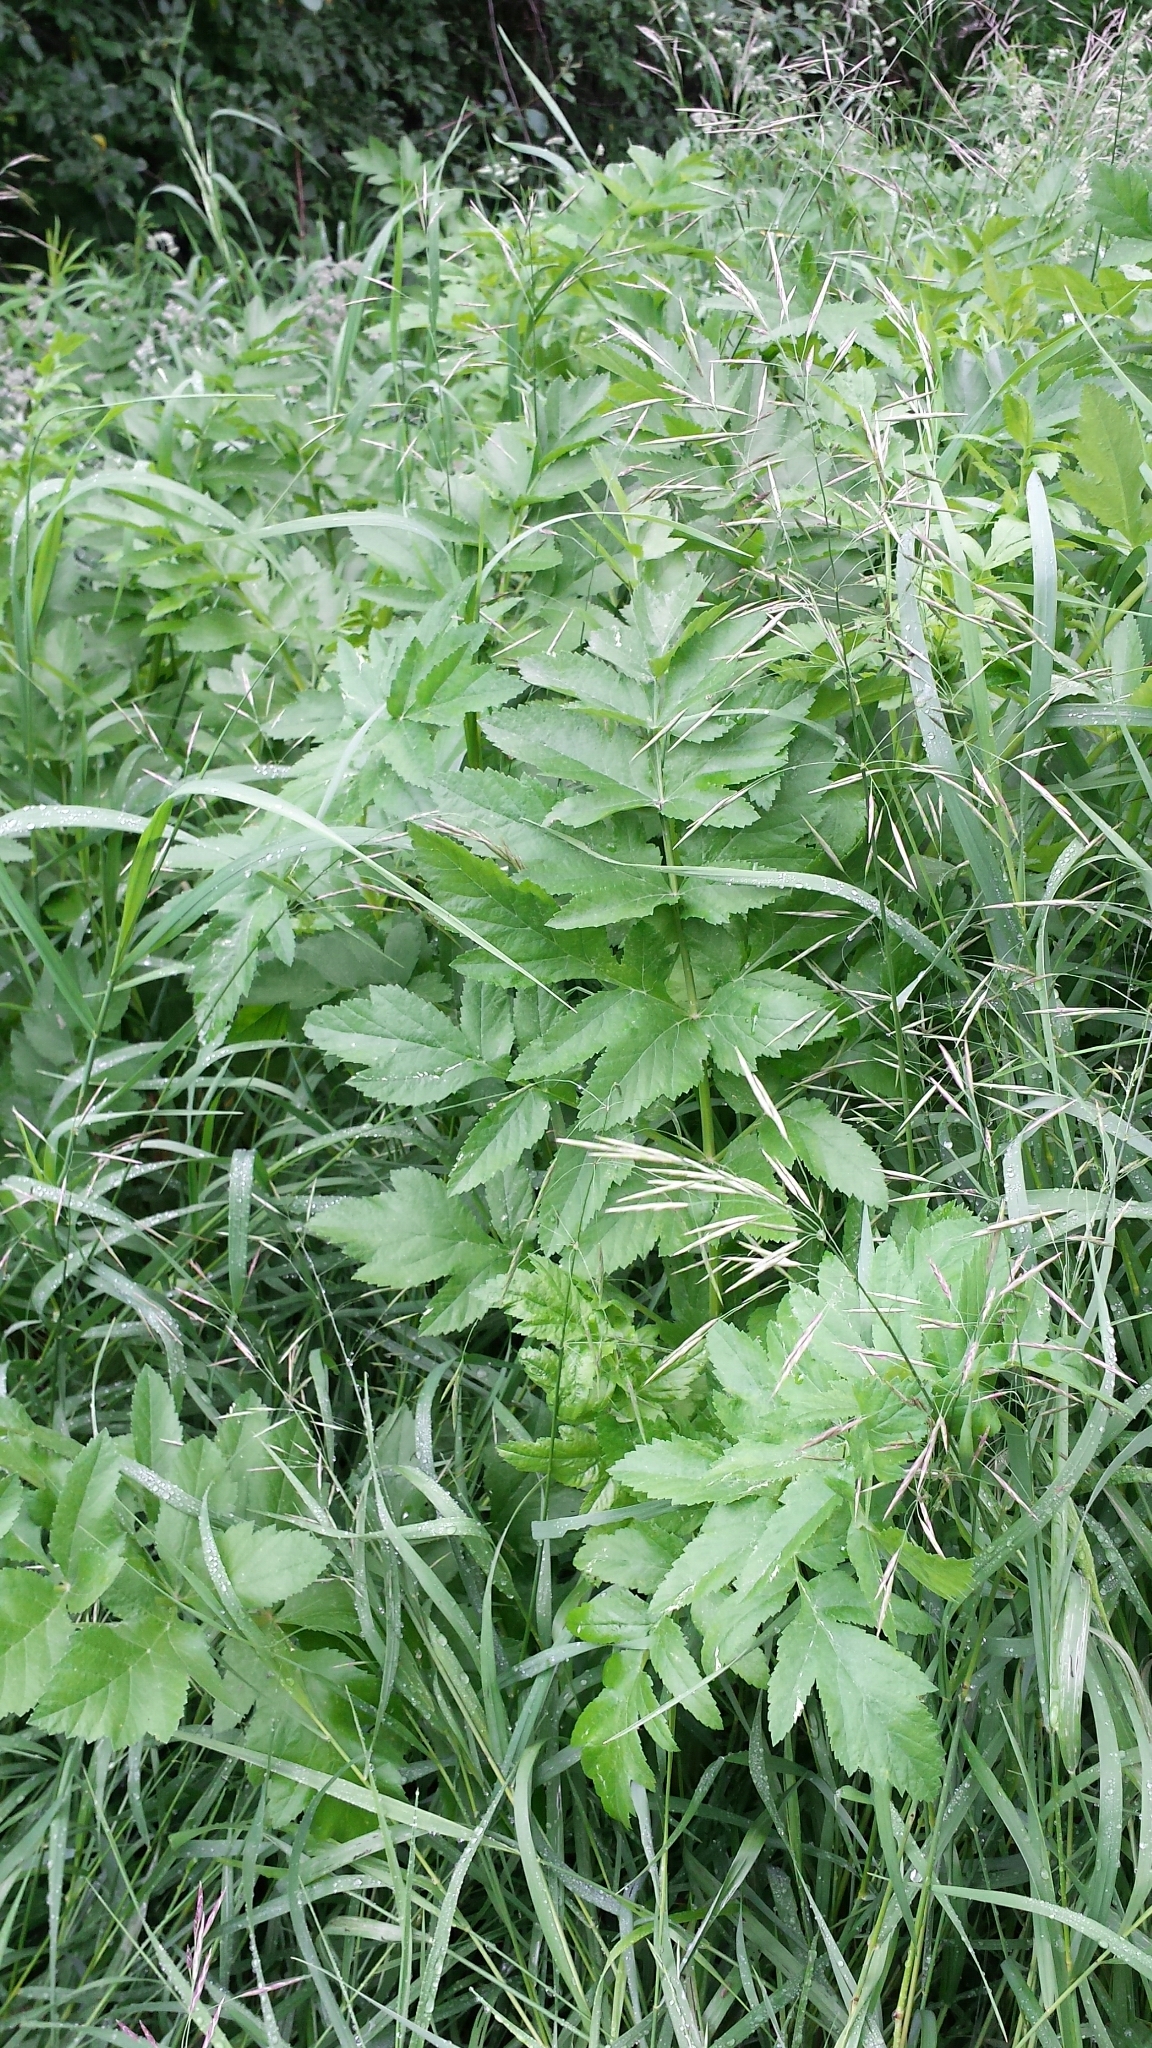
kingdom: Plantae
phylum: Tracheophyta
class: Magnoliopsida
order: Apiales
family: Apiaceae
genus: Pastinaca
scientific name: Pastinaca sativa
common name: Wild parsnip
